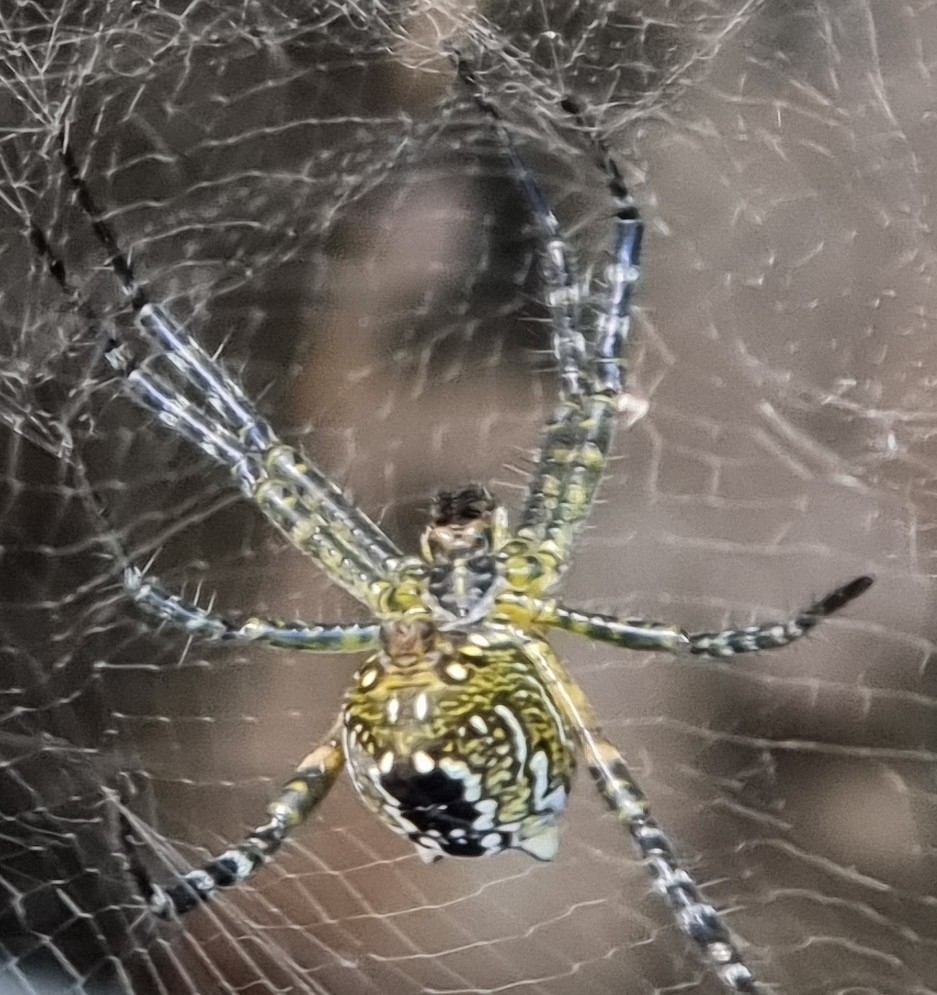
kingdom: Chromista
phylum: Ochrophyta
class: Dictyochophyceae
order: Pedinellales
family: Cyrtophoraceae
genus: Cyrtophora
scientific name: Cyrtophora moluccensis
